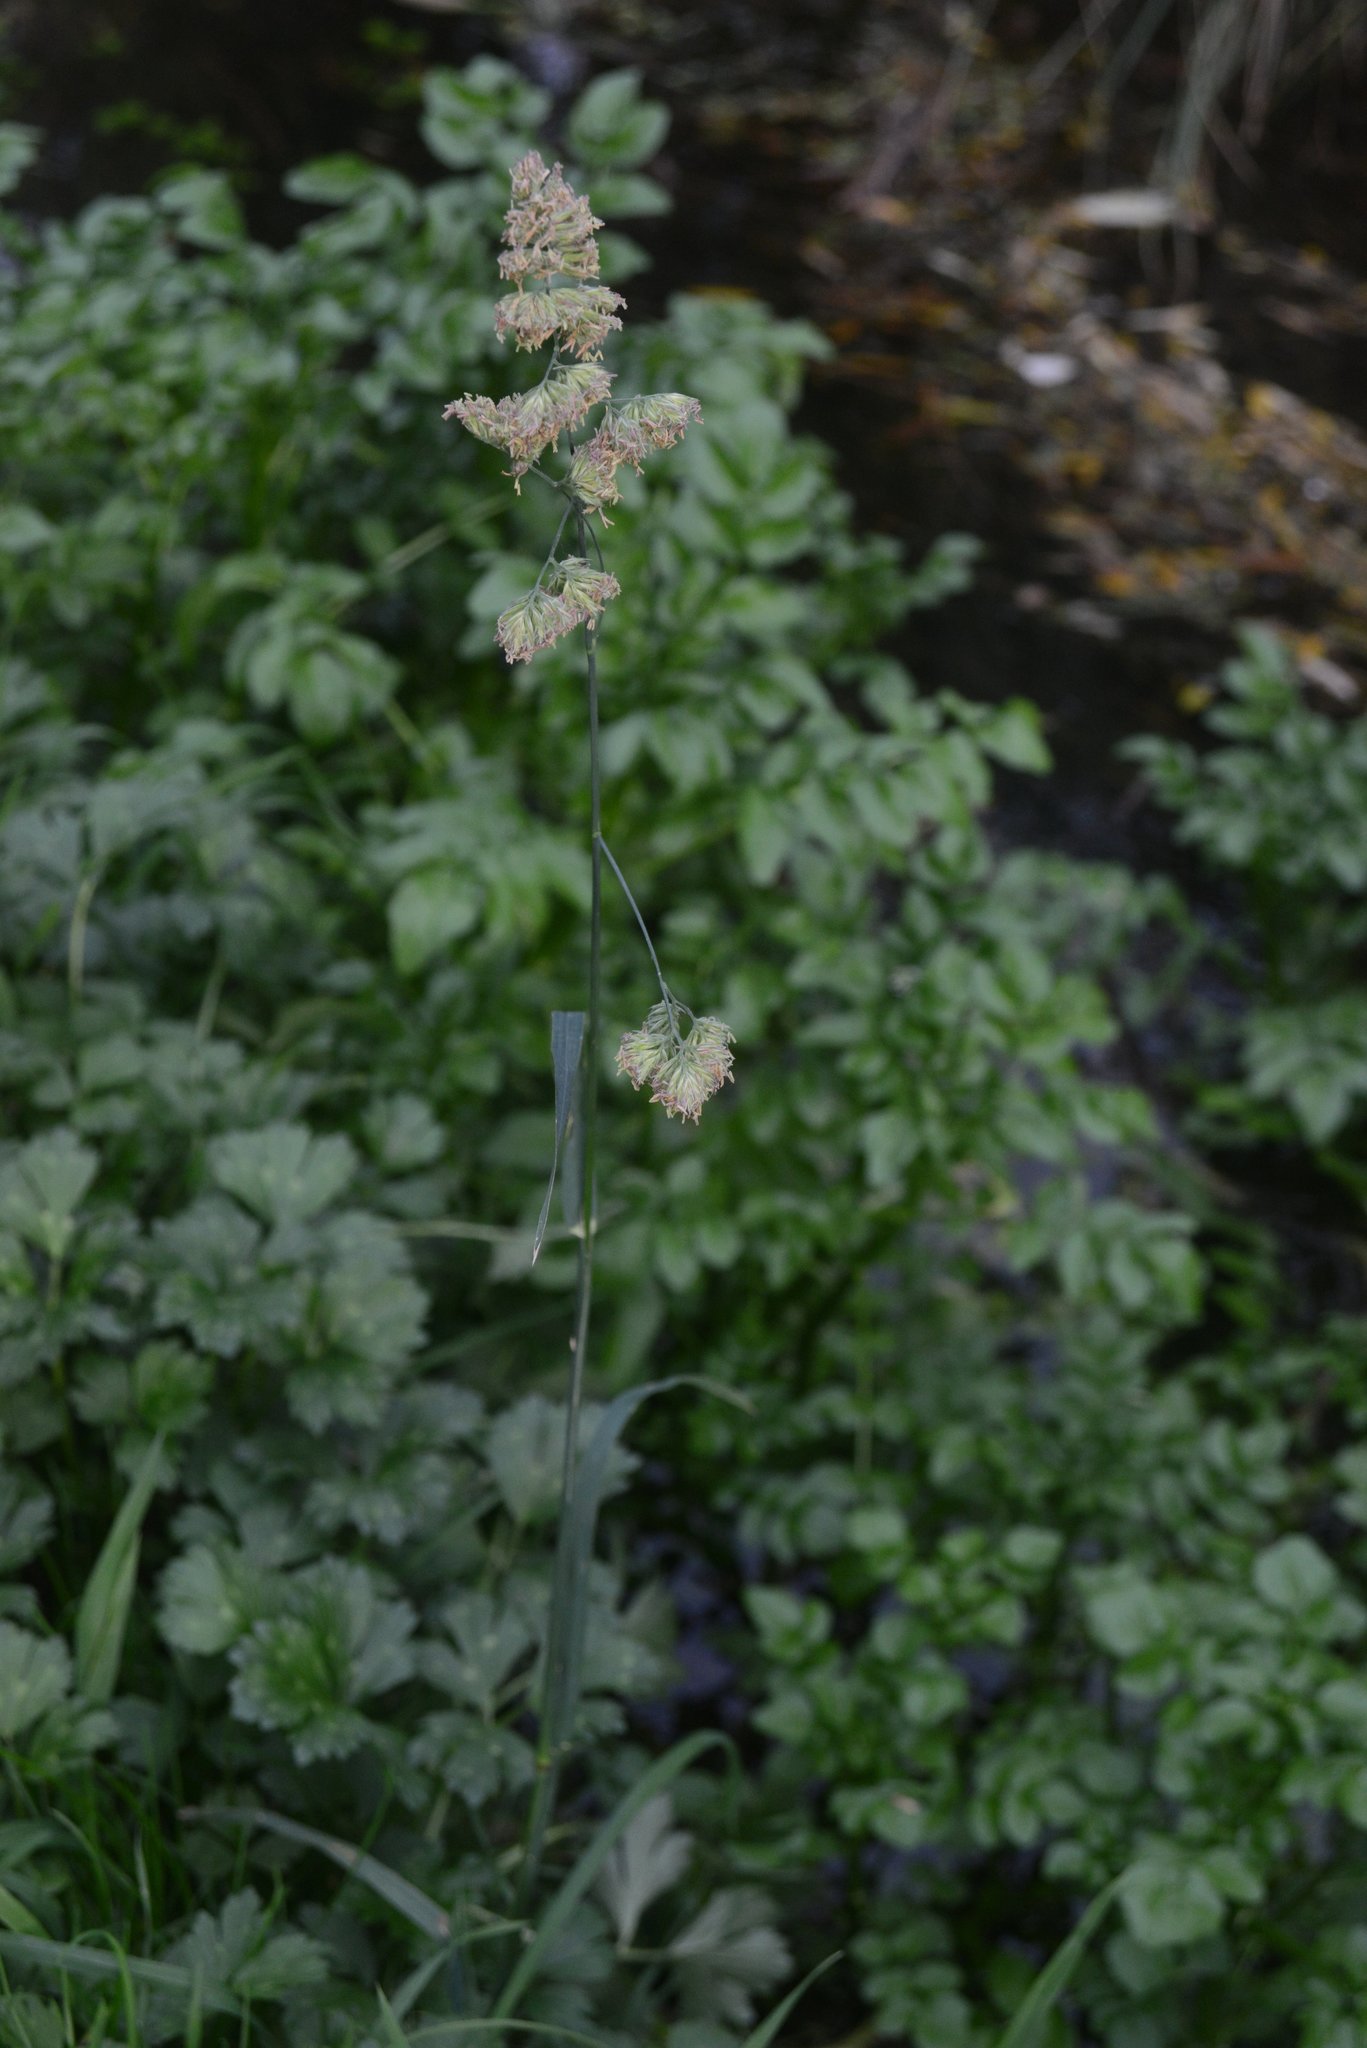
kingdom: Plantae
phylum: Tracheophyta
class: Liliopsida
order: Poales
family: Poaceae
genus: Dactylis
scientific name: Dactylis glomerata
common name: Orchardgrass
